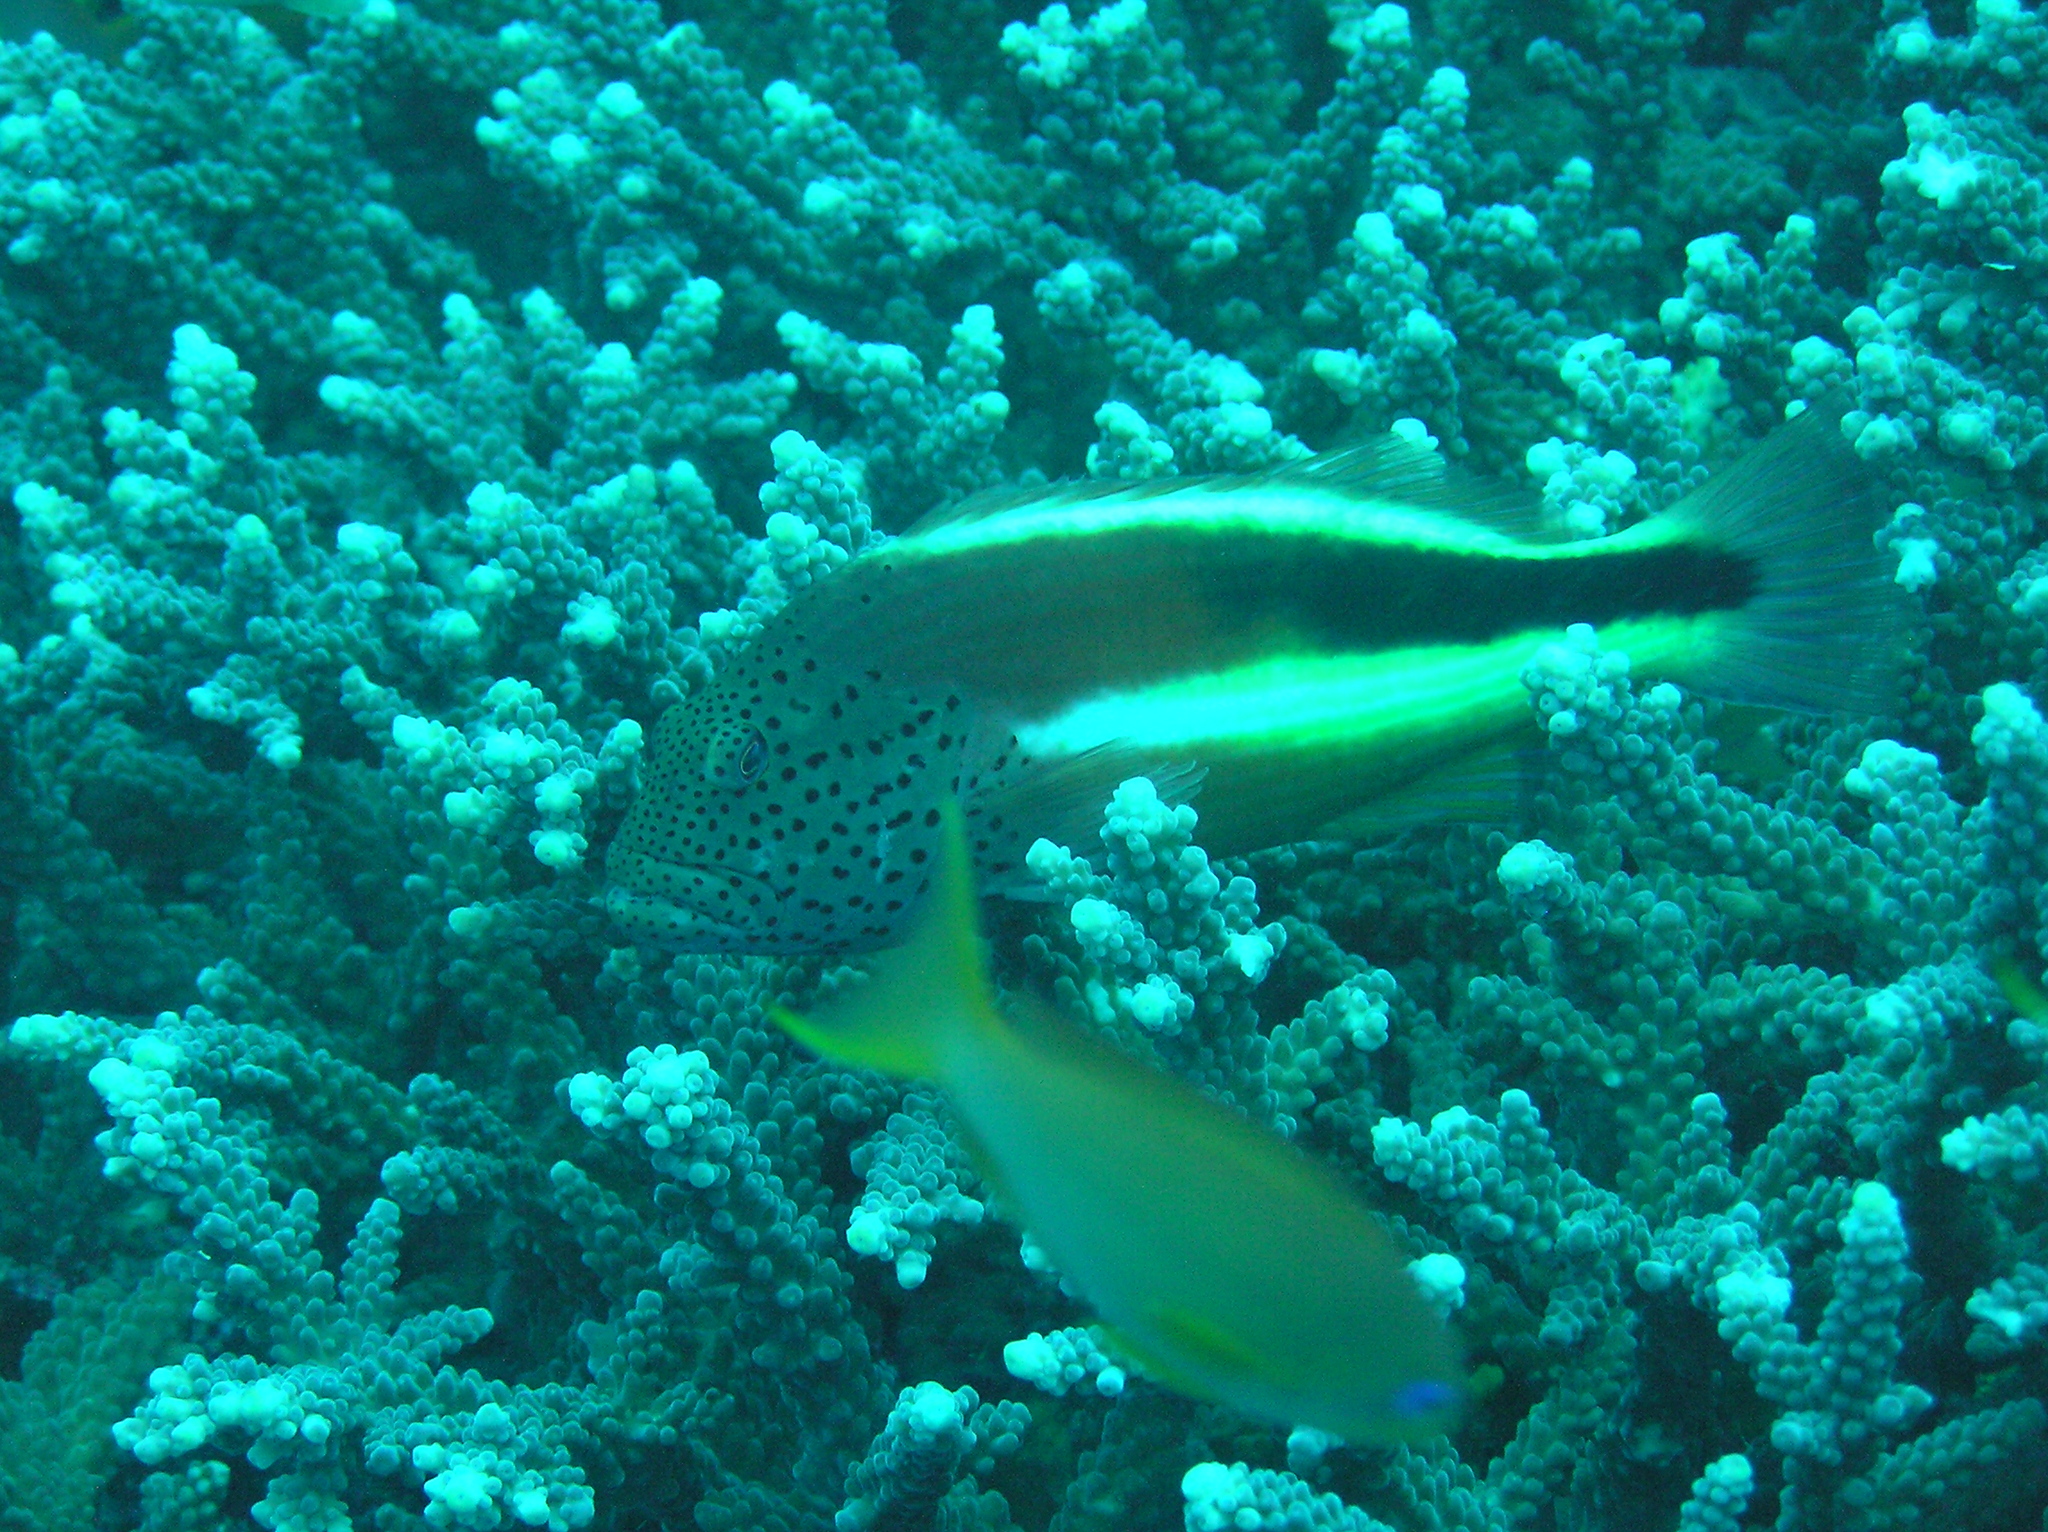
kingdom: Animalia
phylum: Chordata
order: Perciformes
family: Cirrhitidae
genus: Paracirrhites
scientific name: Paracirrhites forsteri
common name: Freckled hawkfish
